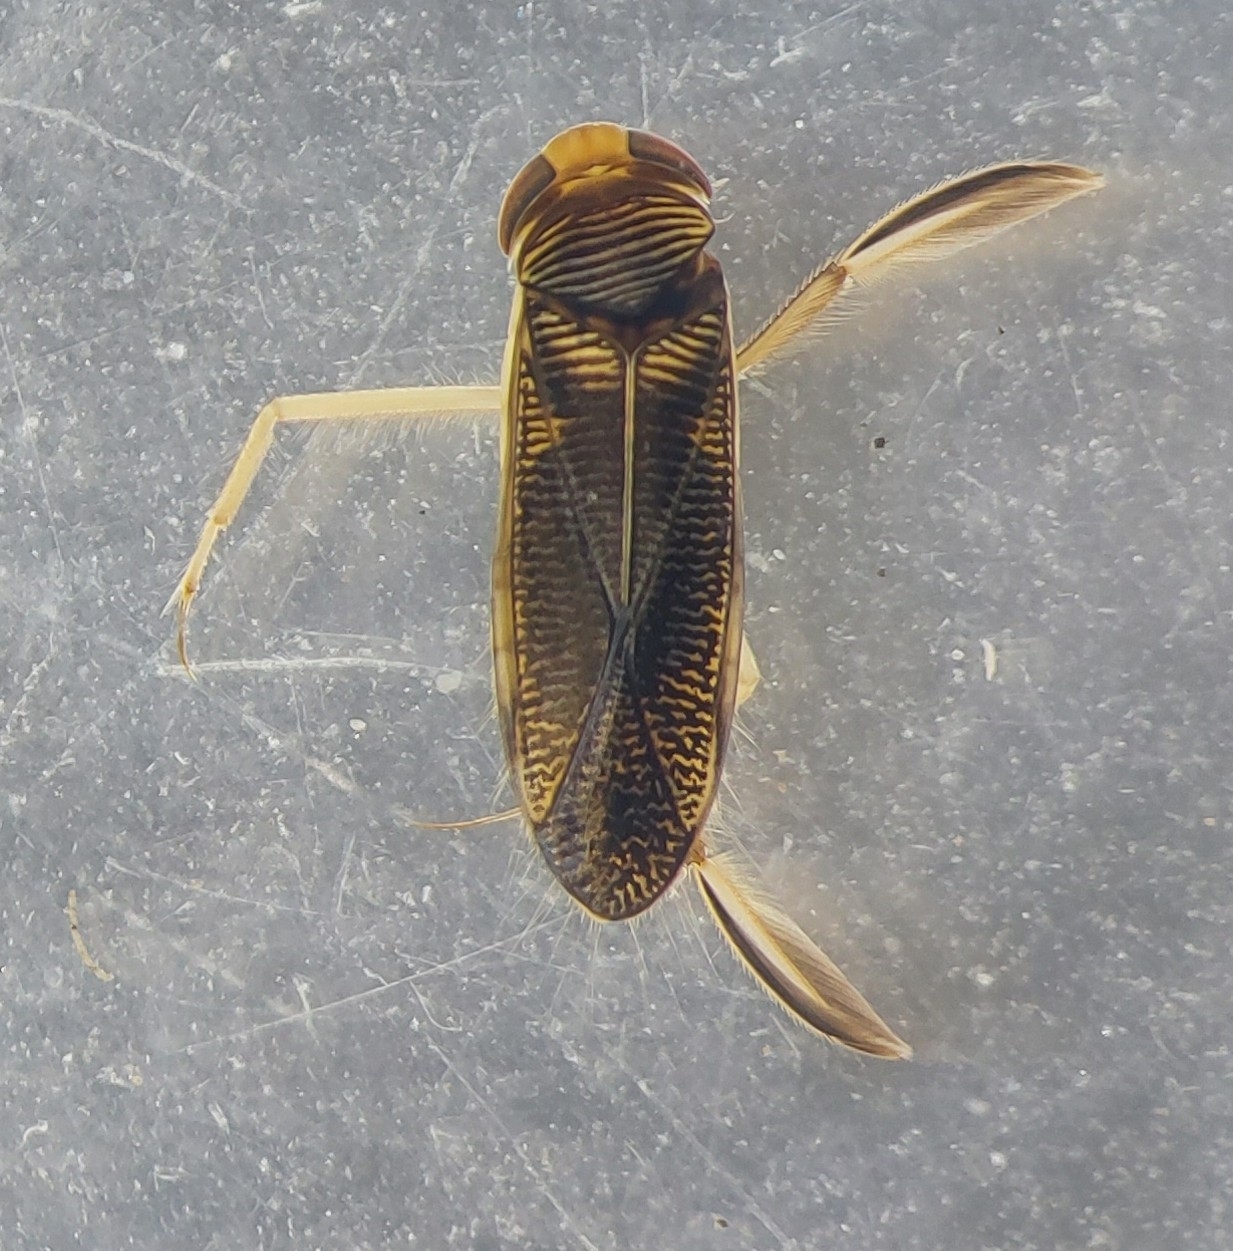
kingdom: Animalia
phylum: Arthropoda
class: Insecta
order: Hemiptera
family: Corixidae
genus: Sigara
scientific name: Sigara lateralis
